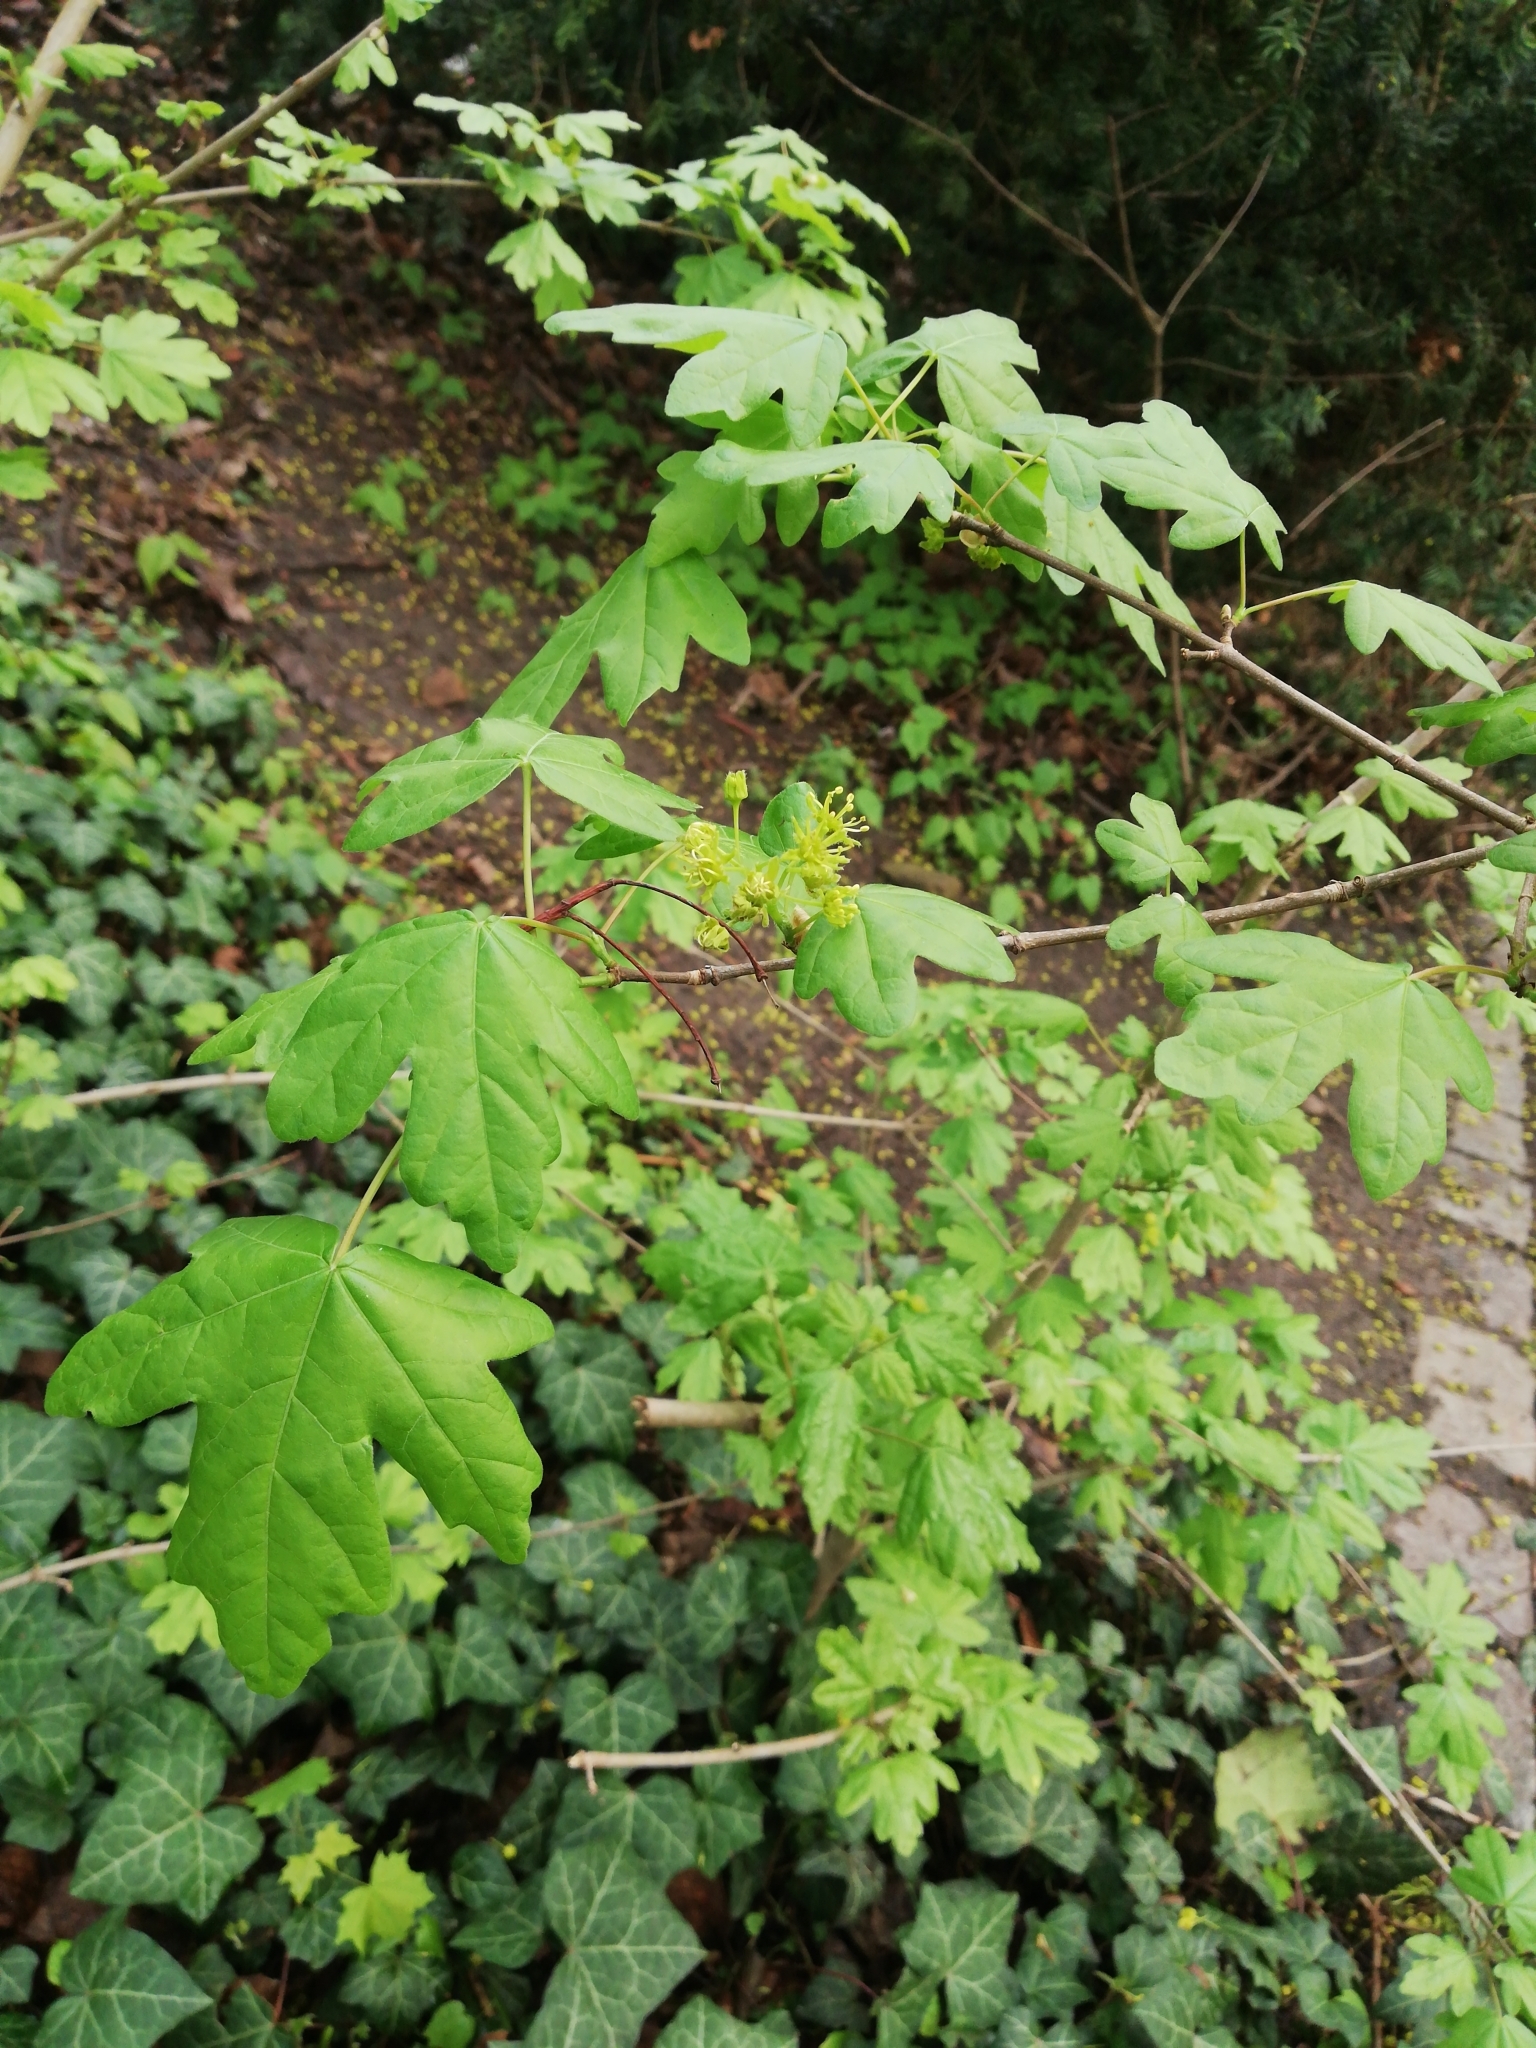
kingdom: Plantae
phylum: Tracheophyta
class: Magnoliopsida
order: Sapindales
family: Sapindaceae
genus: Acer
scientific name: Acer campestre
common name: Field maple
